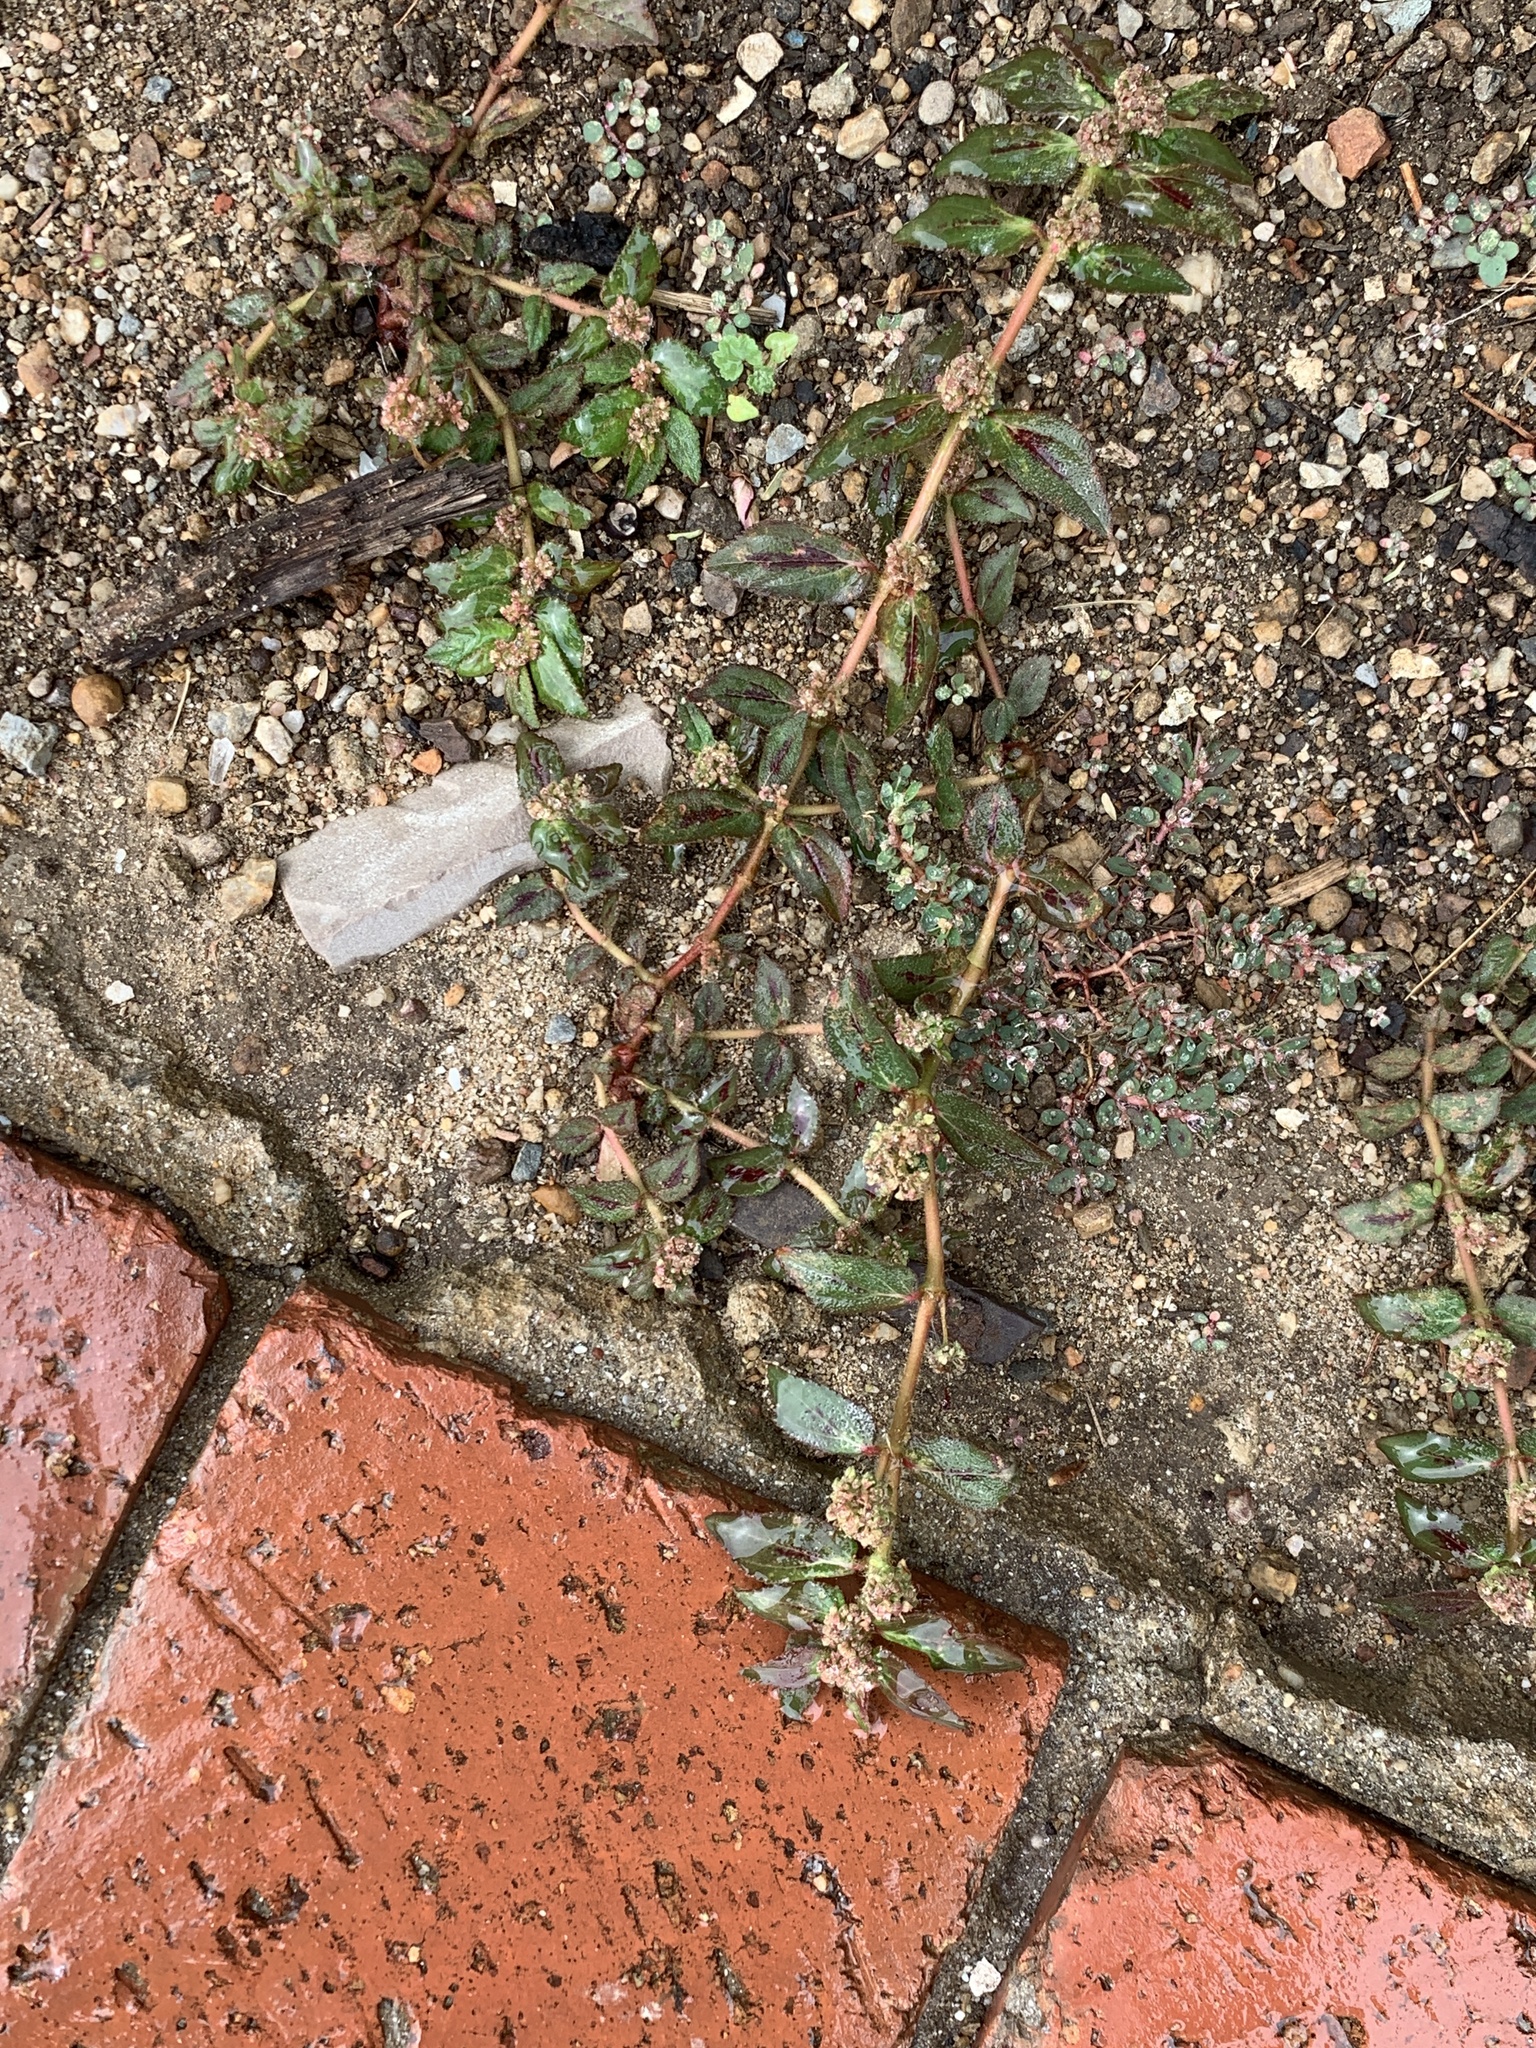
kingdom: Plantae
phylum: Tracheophyta
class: Magnoliopsida
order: Malpighiales
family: Euphorbiaceae
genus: Euphorbia
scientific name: Euphorbia hirta
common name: Pillpod sandmat
